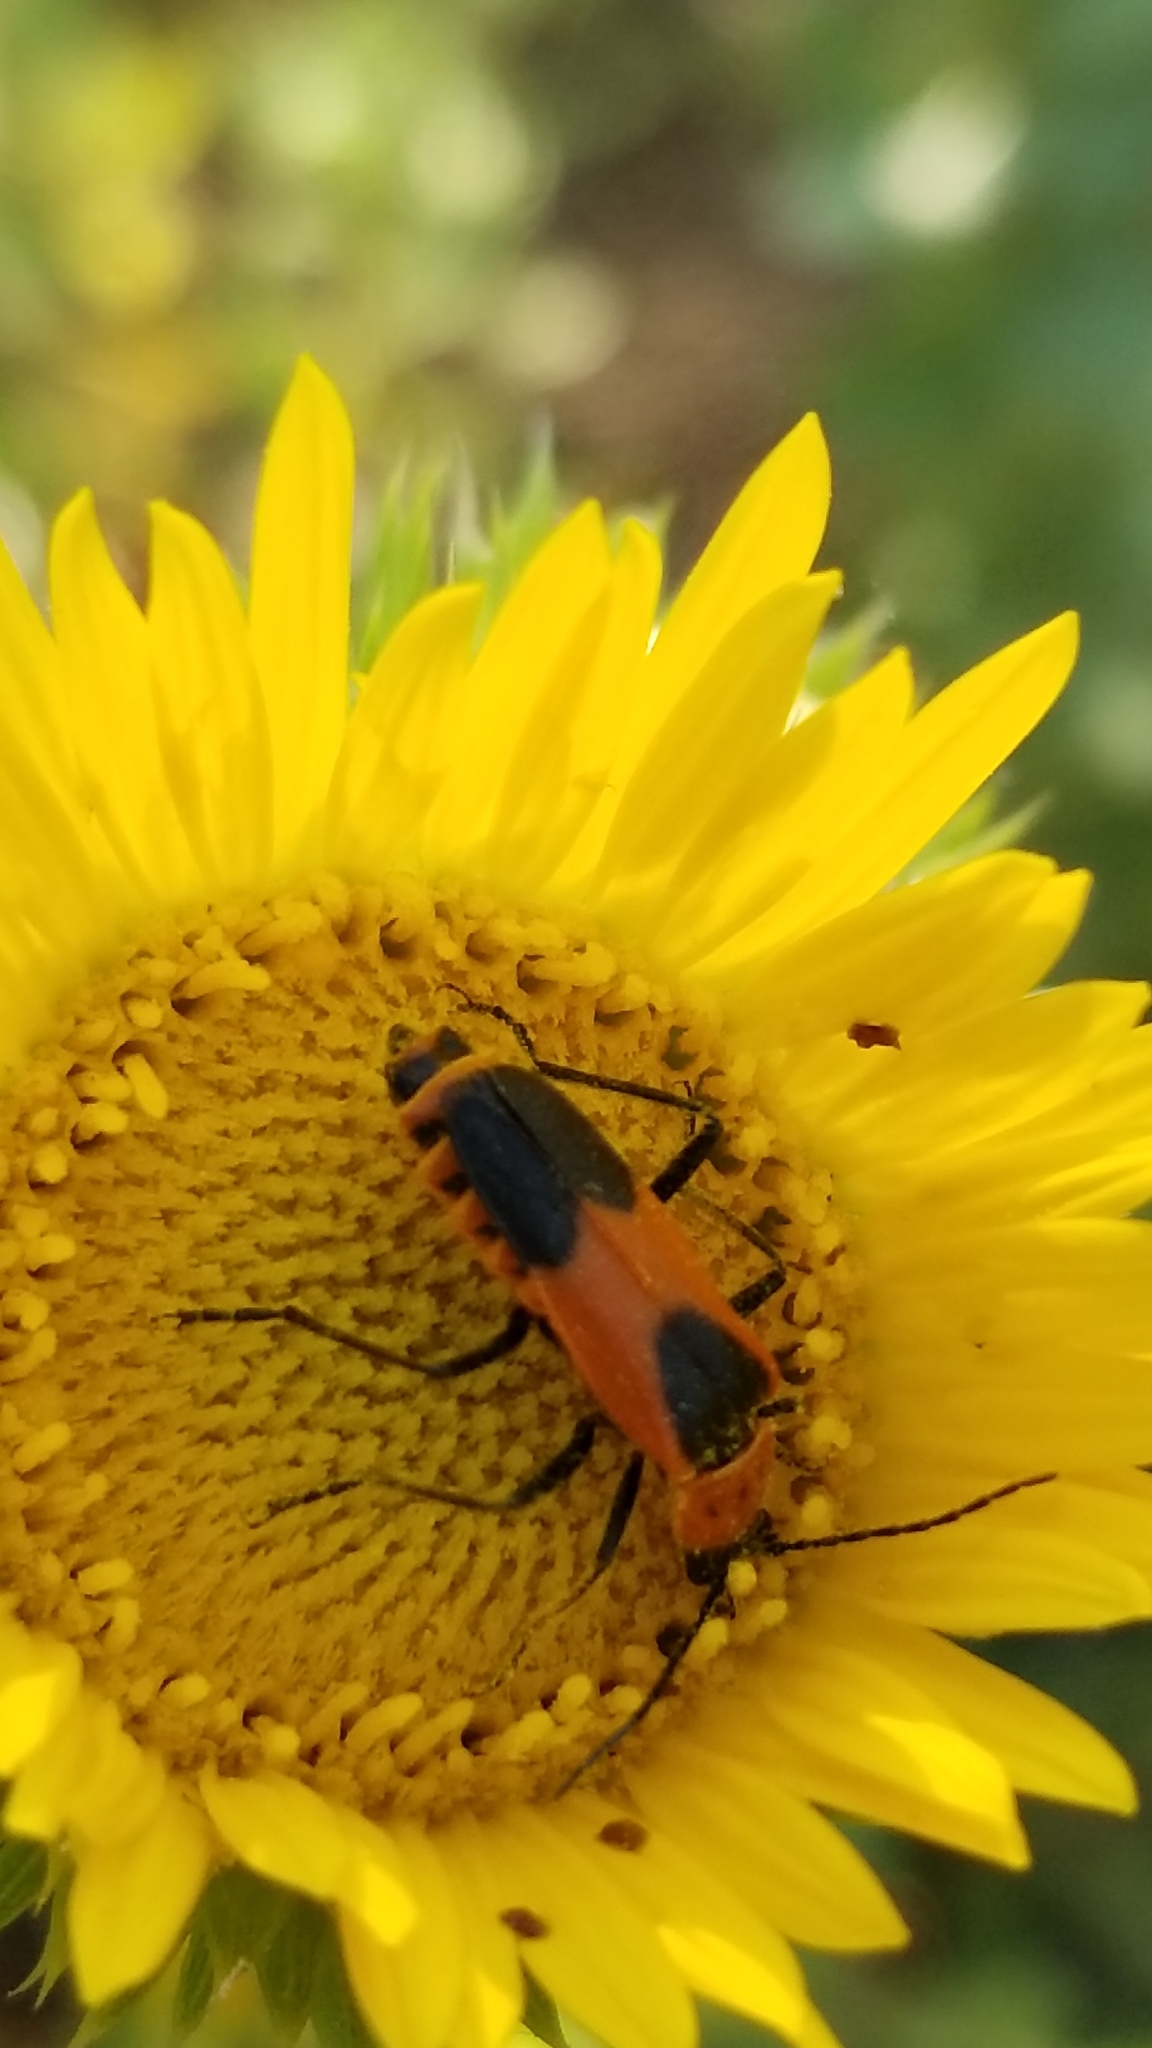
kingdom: Animalia
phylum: Arthropoda
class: Insecta
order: Coleoptera
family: Cantharidae
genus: Chauliognathus
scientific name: Chauliognathus basalis
